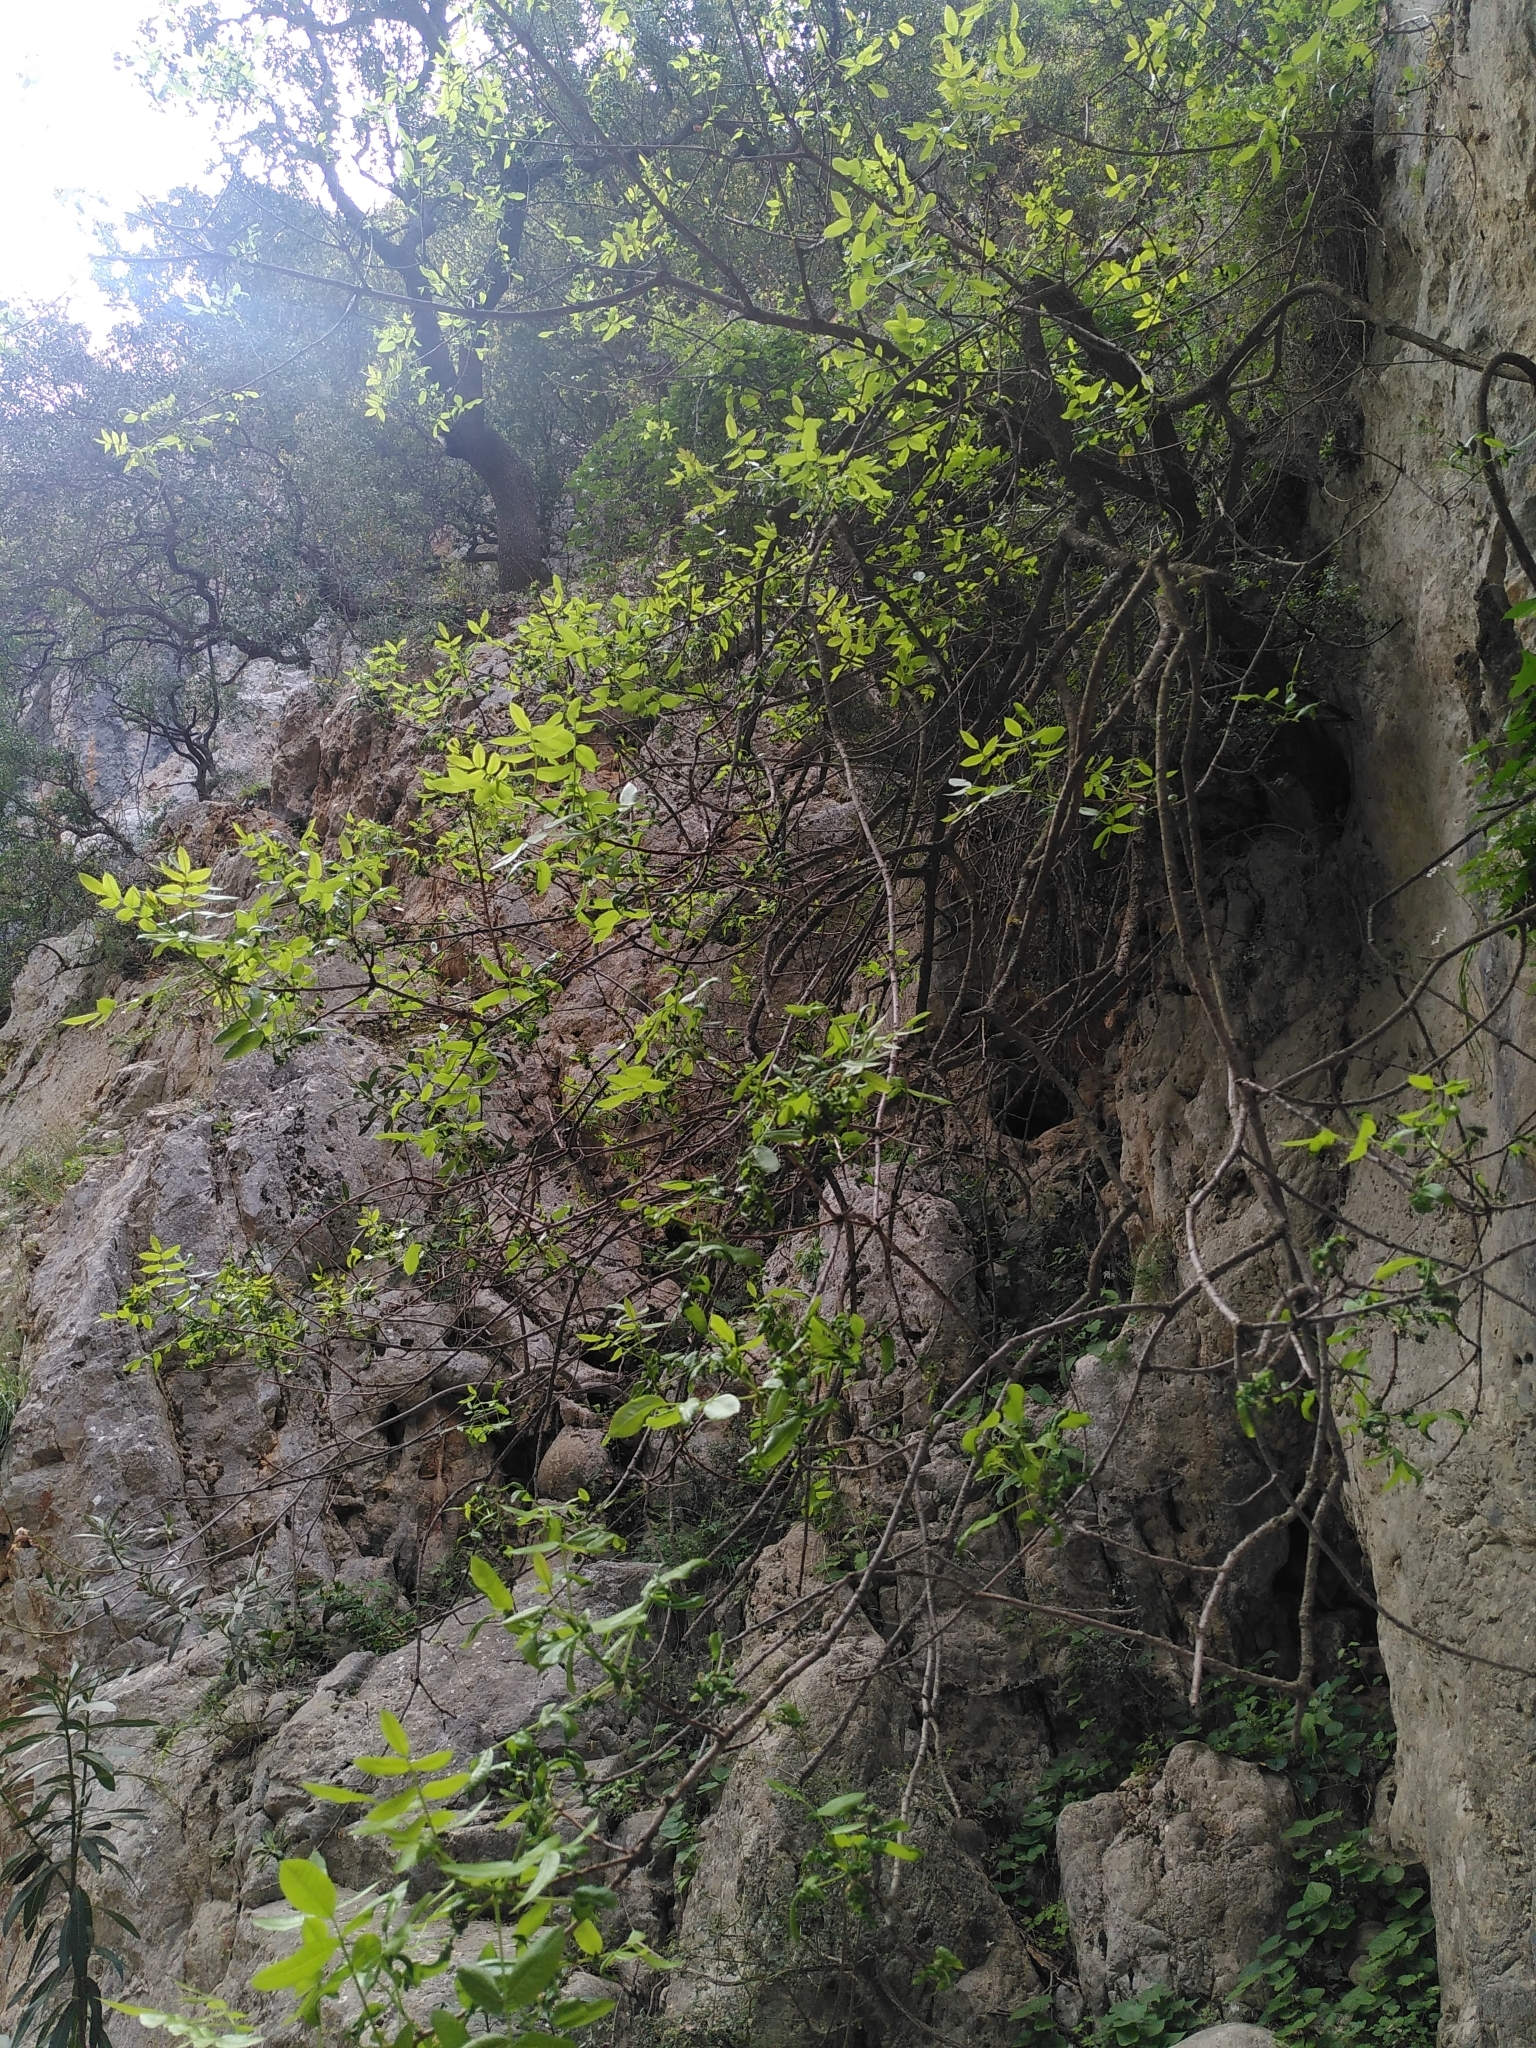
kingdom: Plantae
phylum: Tracheophyta
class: Magnoliopsida
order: Sapindales
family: Anacardiaceae
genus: Pistacia
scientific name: Pistacia terebinthus
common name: Terebinth
